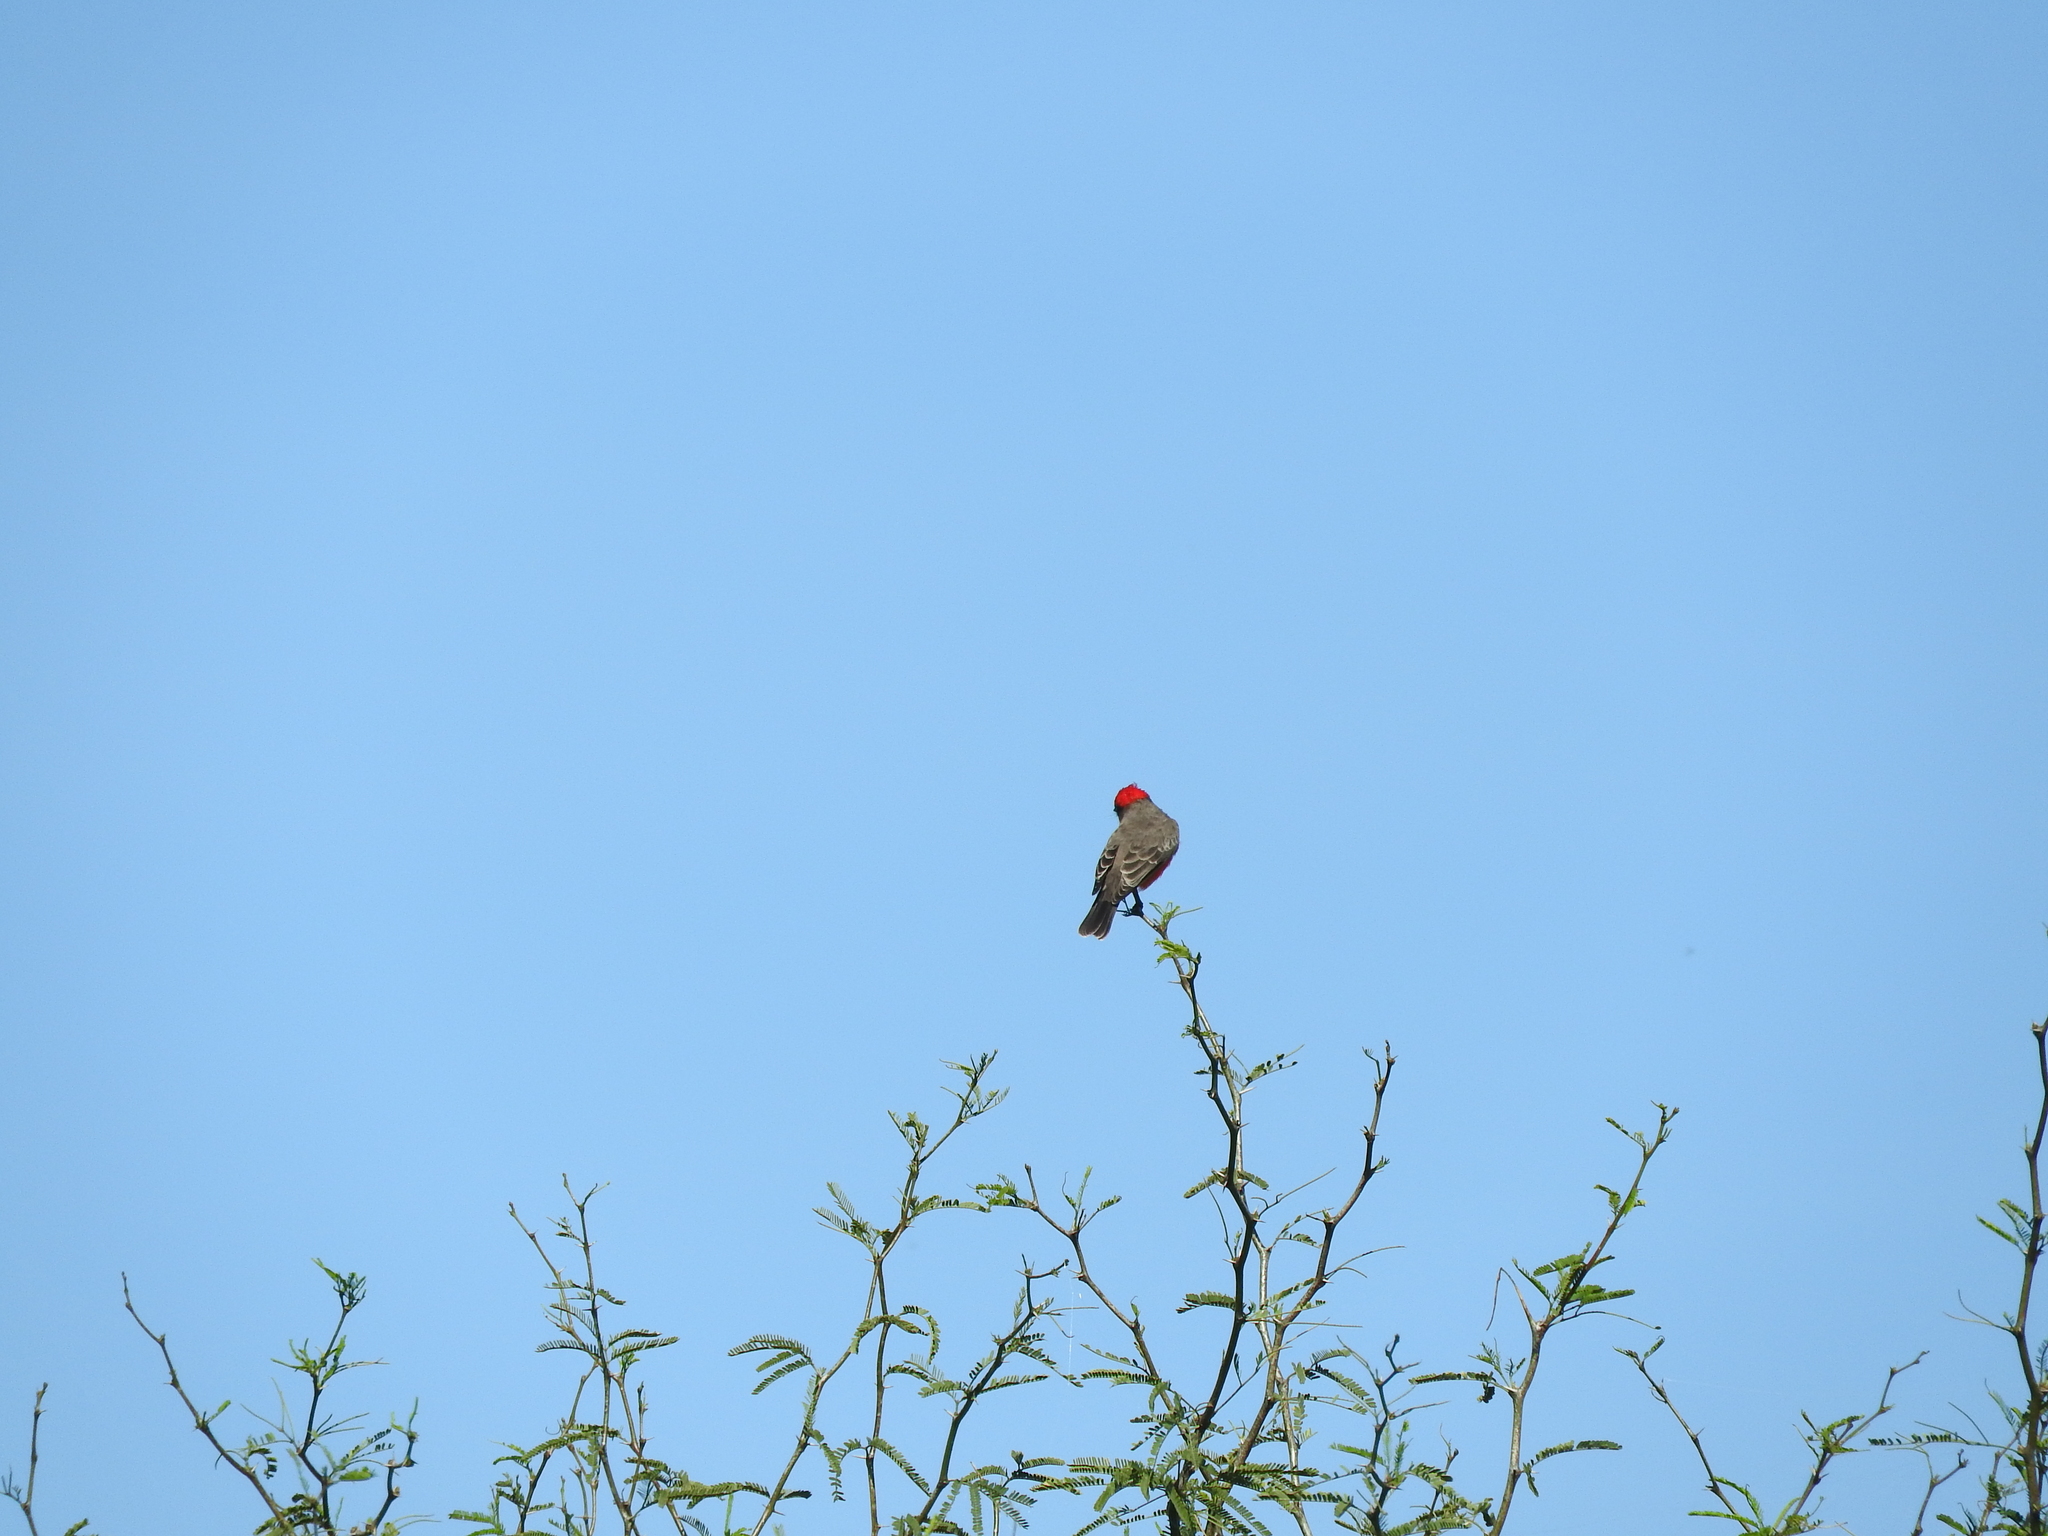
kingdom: Animalia
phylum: Chordata
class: Aves
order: Passeriformes
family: Tyrannidae
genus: Pyrocephalus
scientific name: Pyrocephalus rubinus
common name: Vermilion flycatcher
